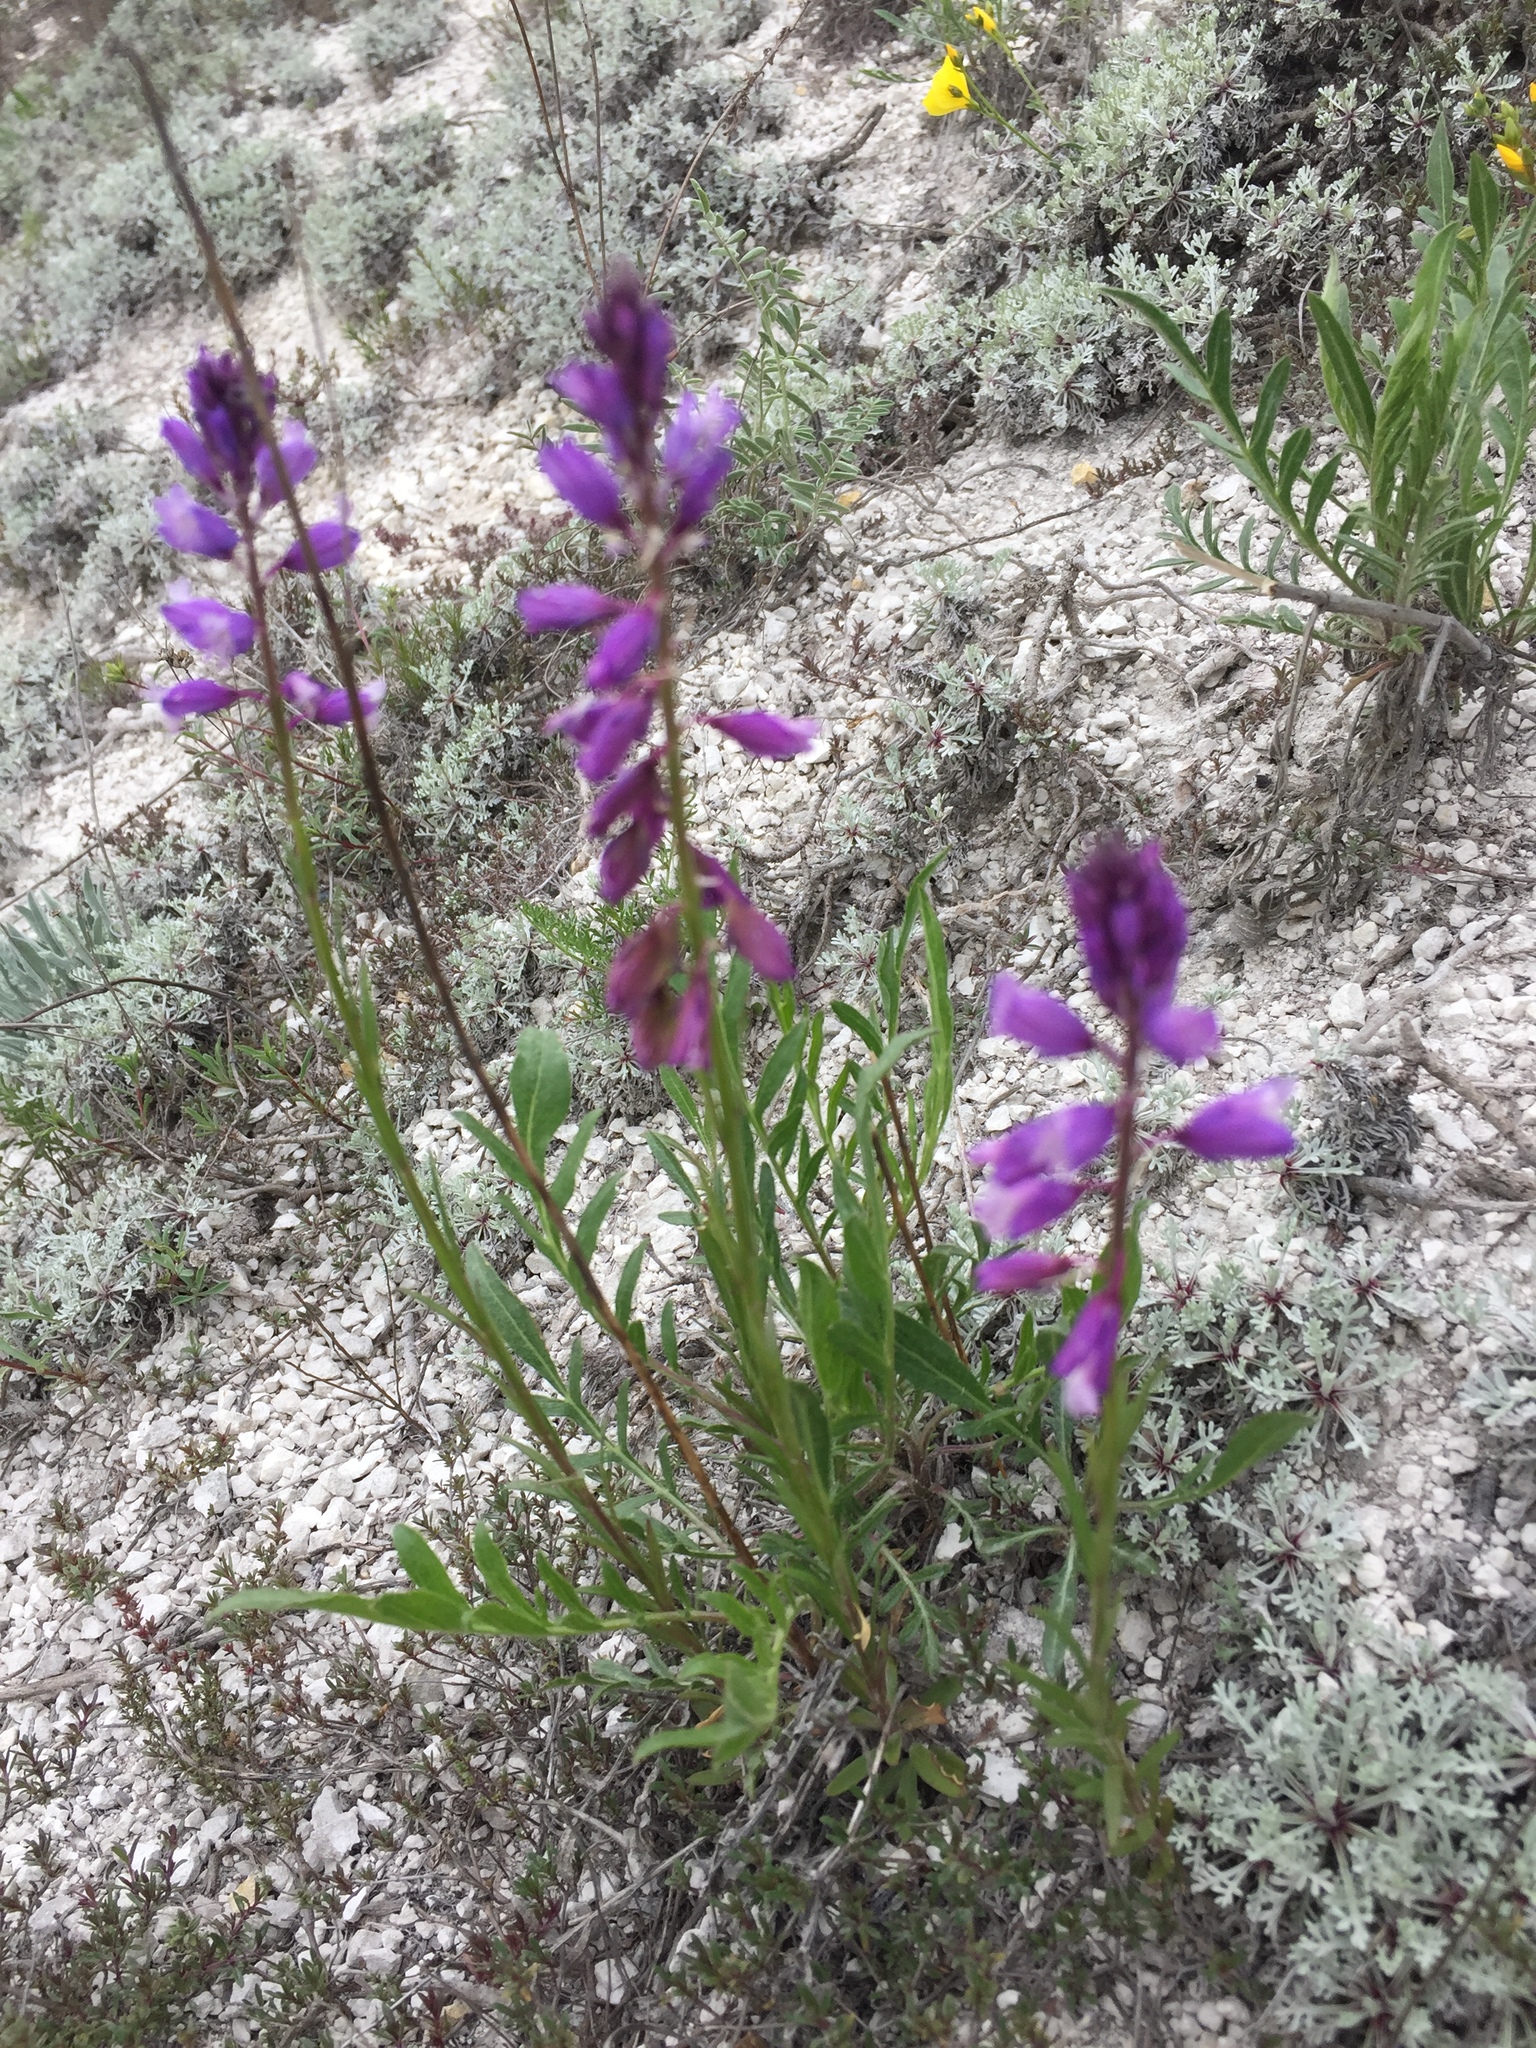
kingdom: Plantae
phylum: Tracheophyta
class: Magnoliopsida
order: Fabales
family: Polygalaceae
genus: Polygala
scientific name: Polygala nicaeensis
